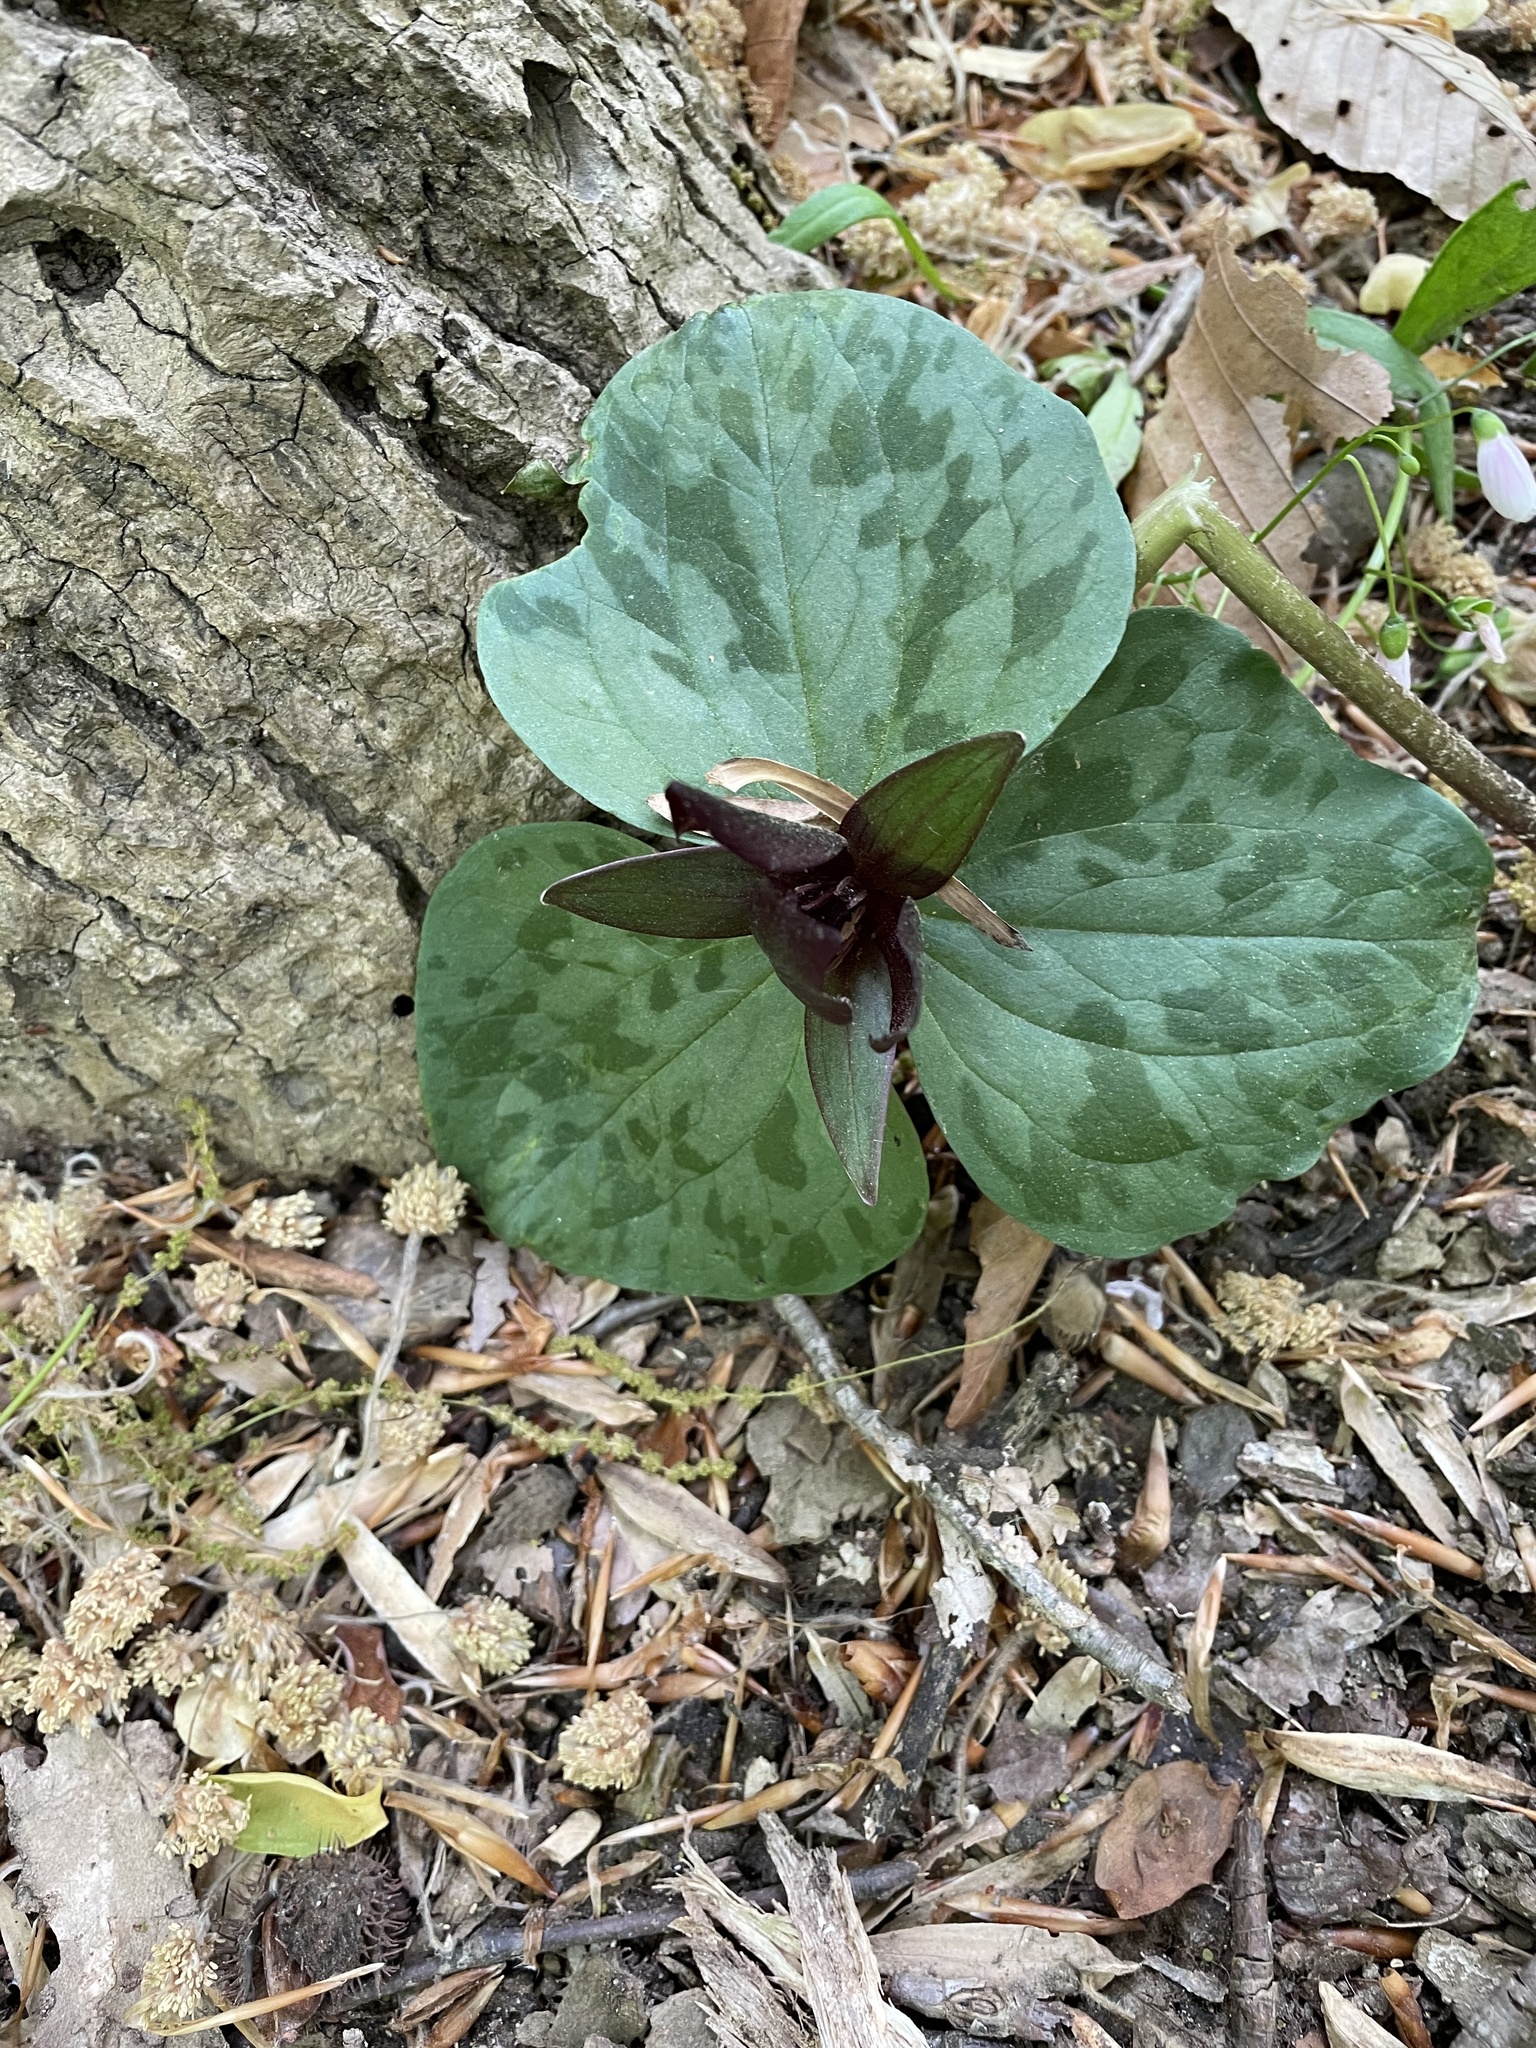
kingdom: Plantae
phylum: Tracheophyta
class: Liliopsida
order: Liliales
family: Melanthiaceae
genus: Trillium
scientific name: Trillium cuneatum
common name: Cuneate trillium
